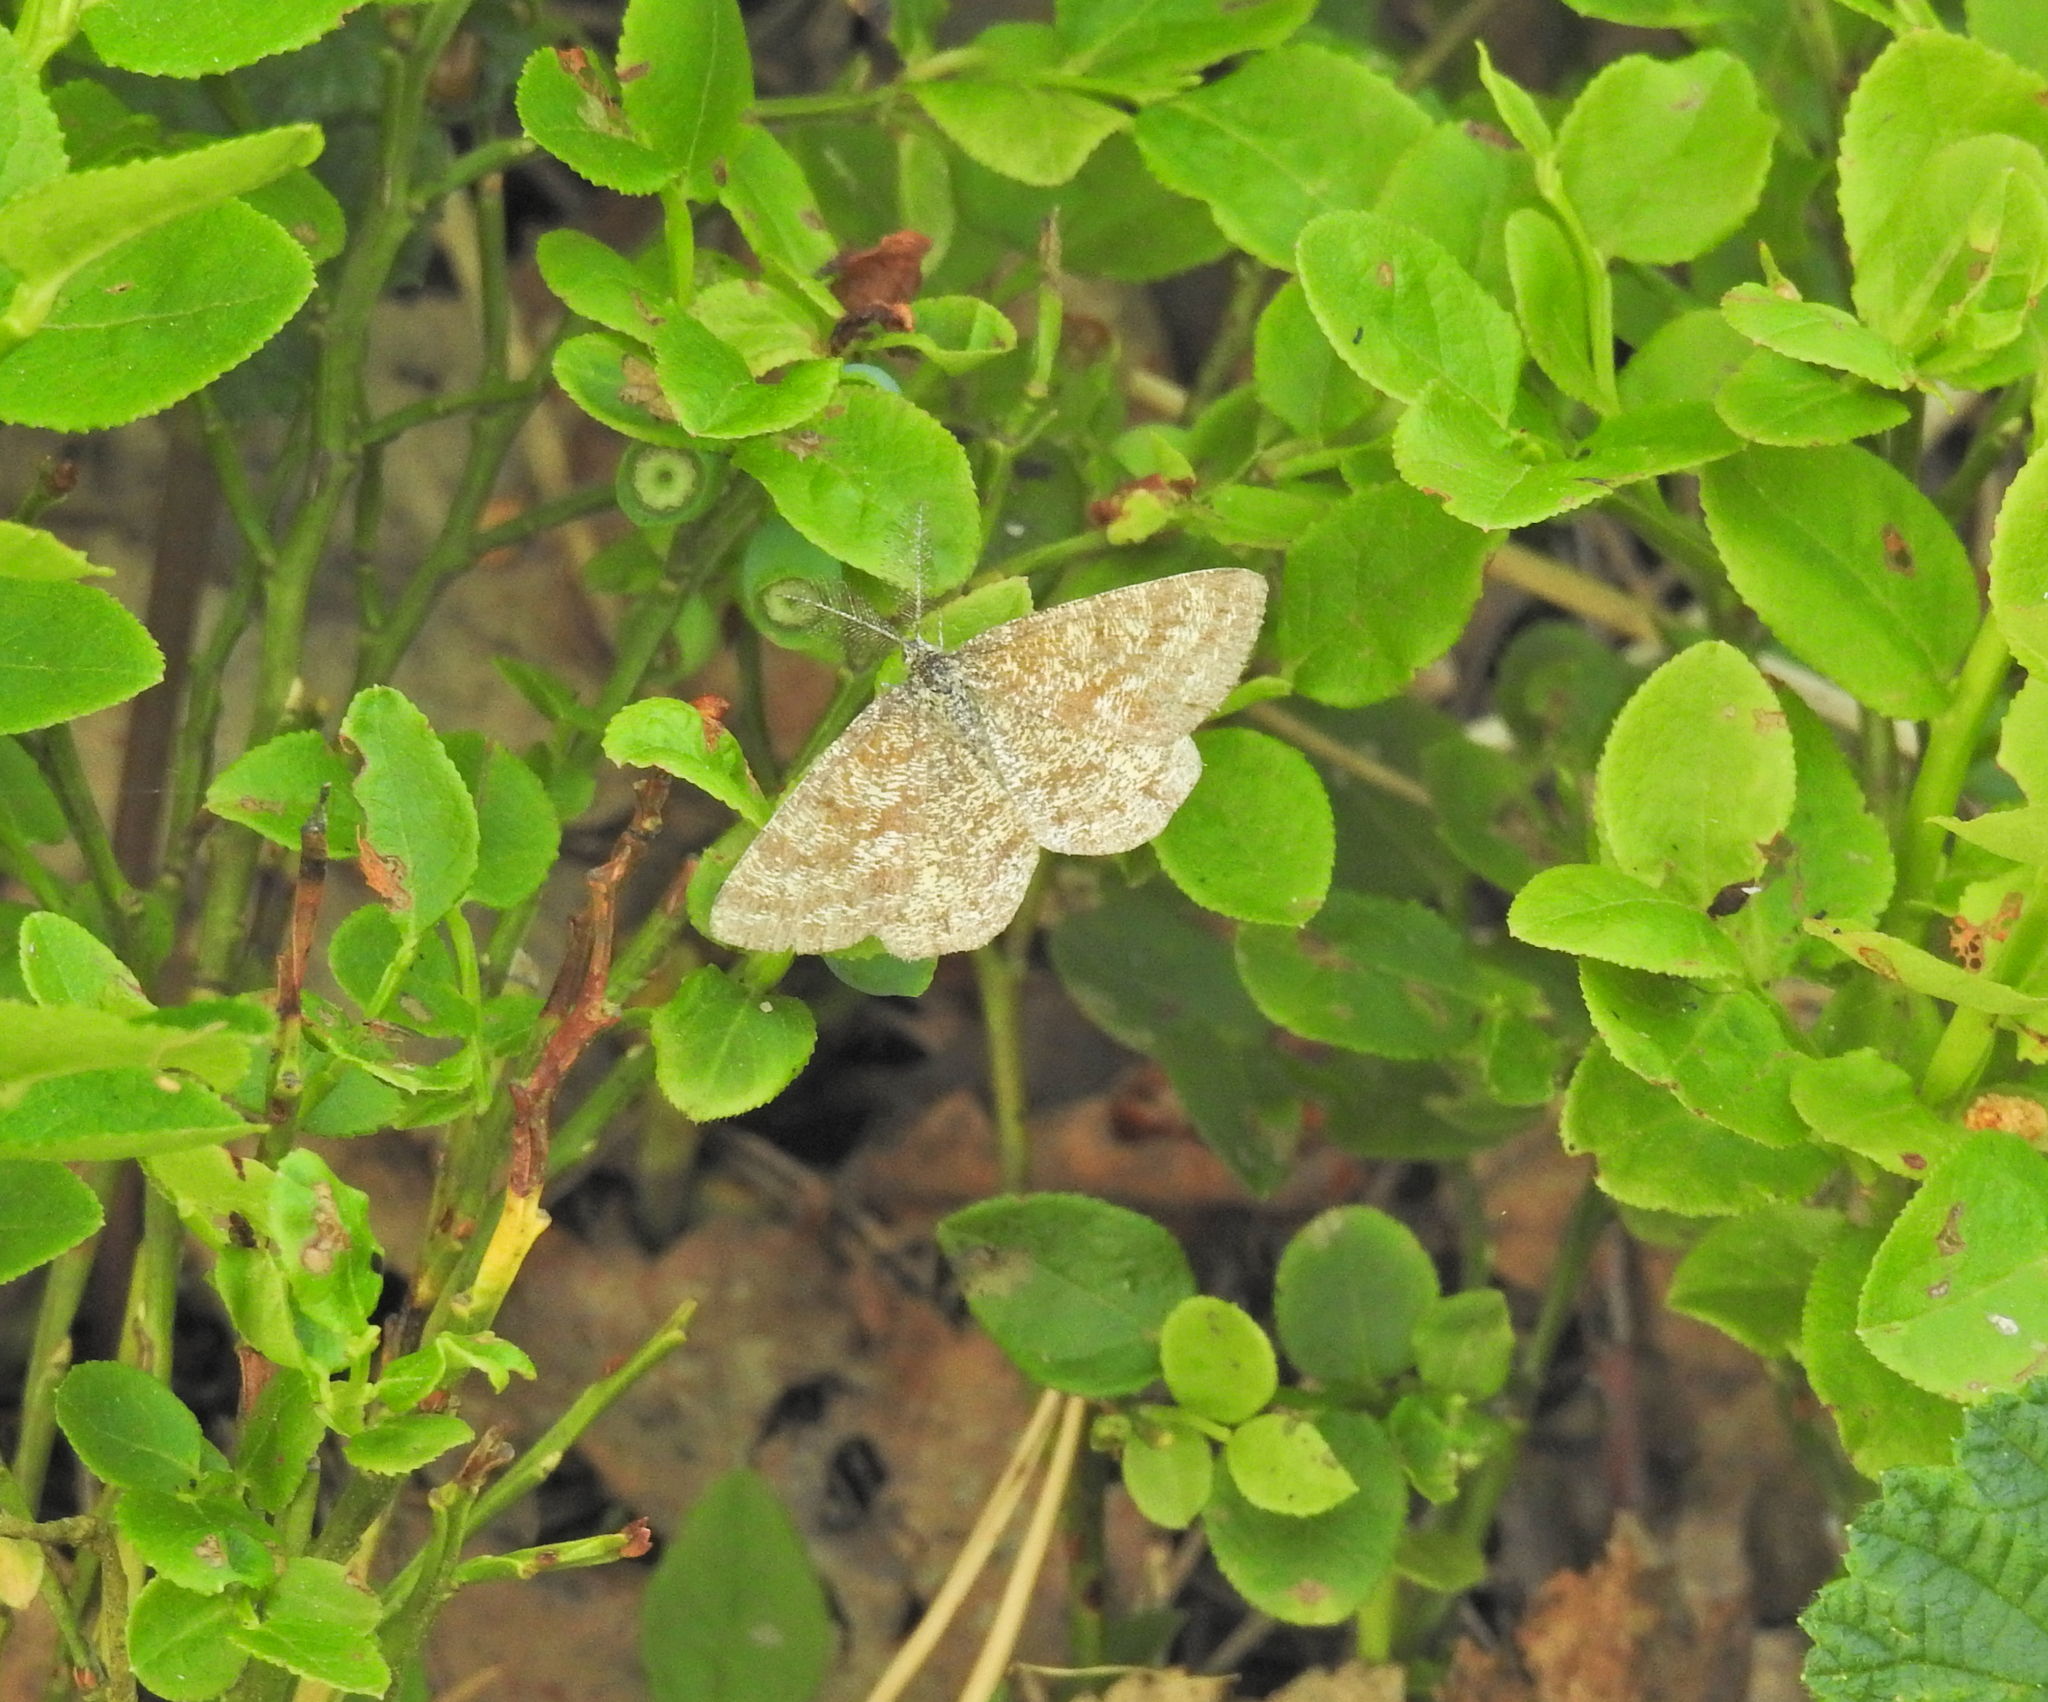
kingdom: Animalia
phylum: Arthropoda
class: Insecta
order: Lepidoptera
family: Geometridae
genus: Ematurga
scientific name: Ematurga atomaria
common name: Common heath
